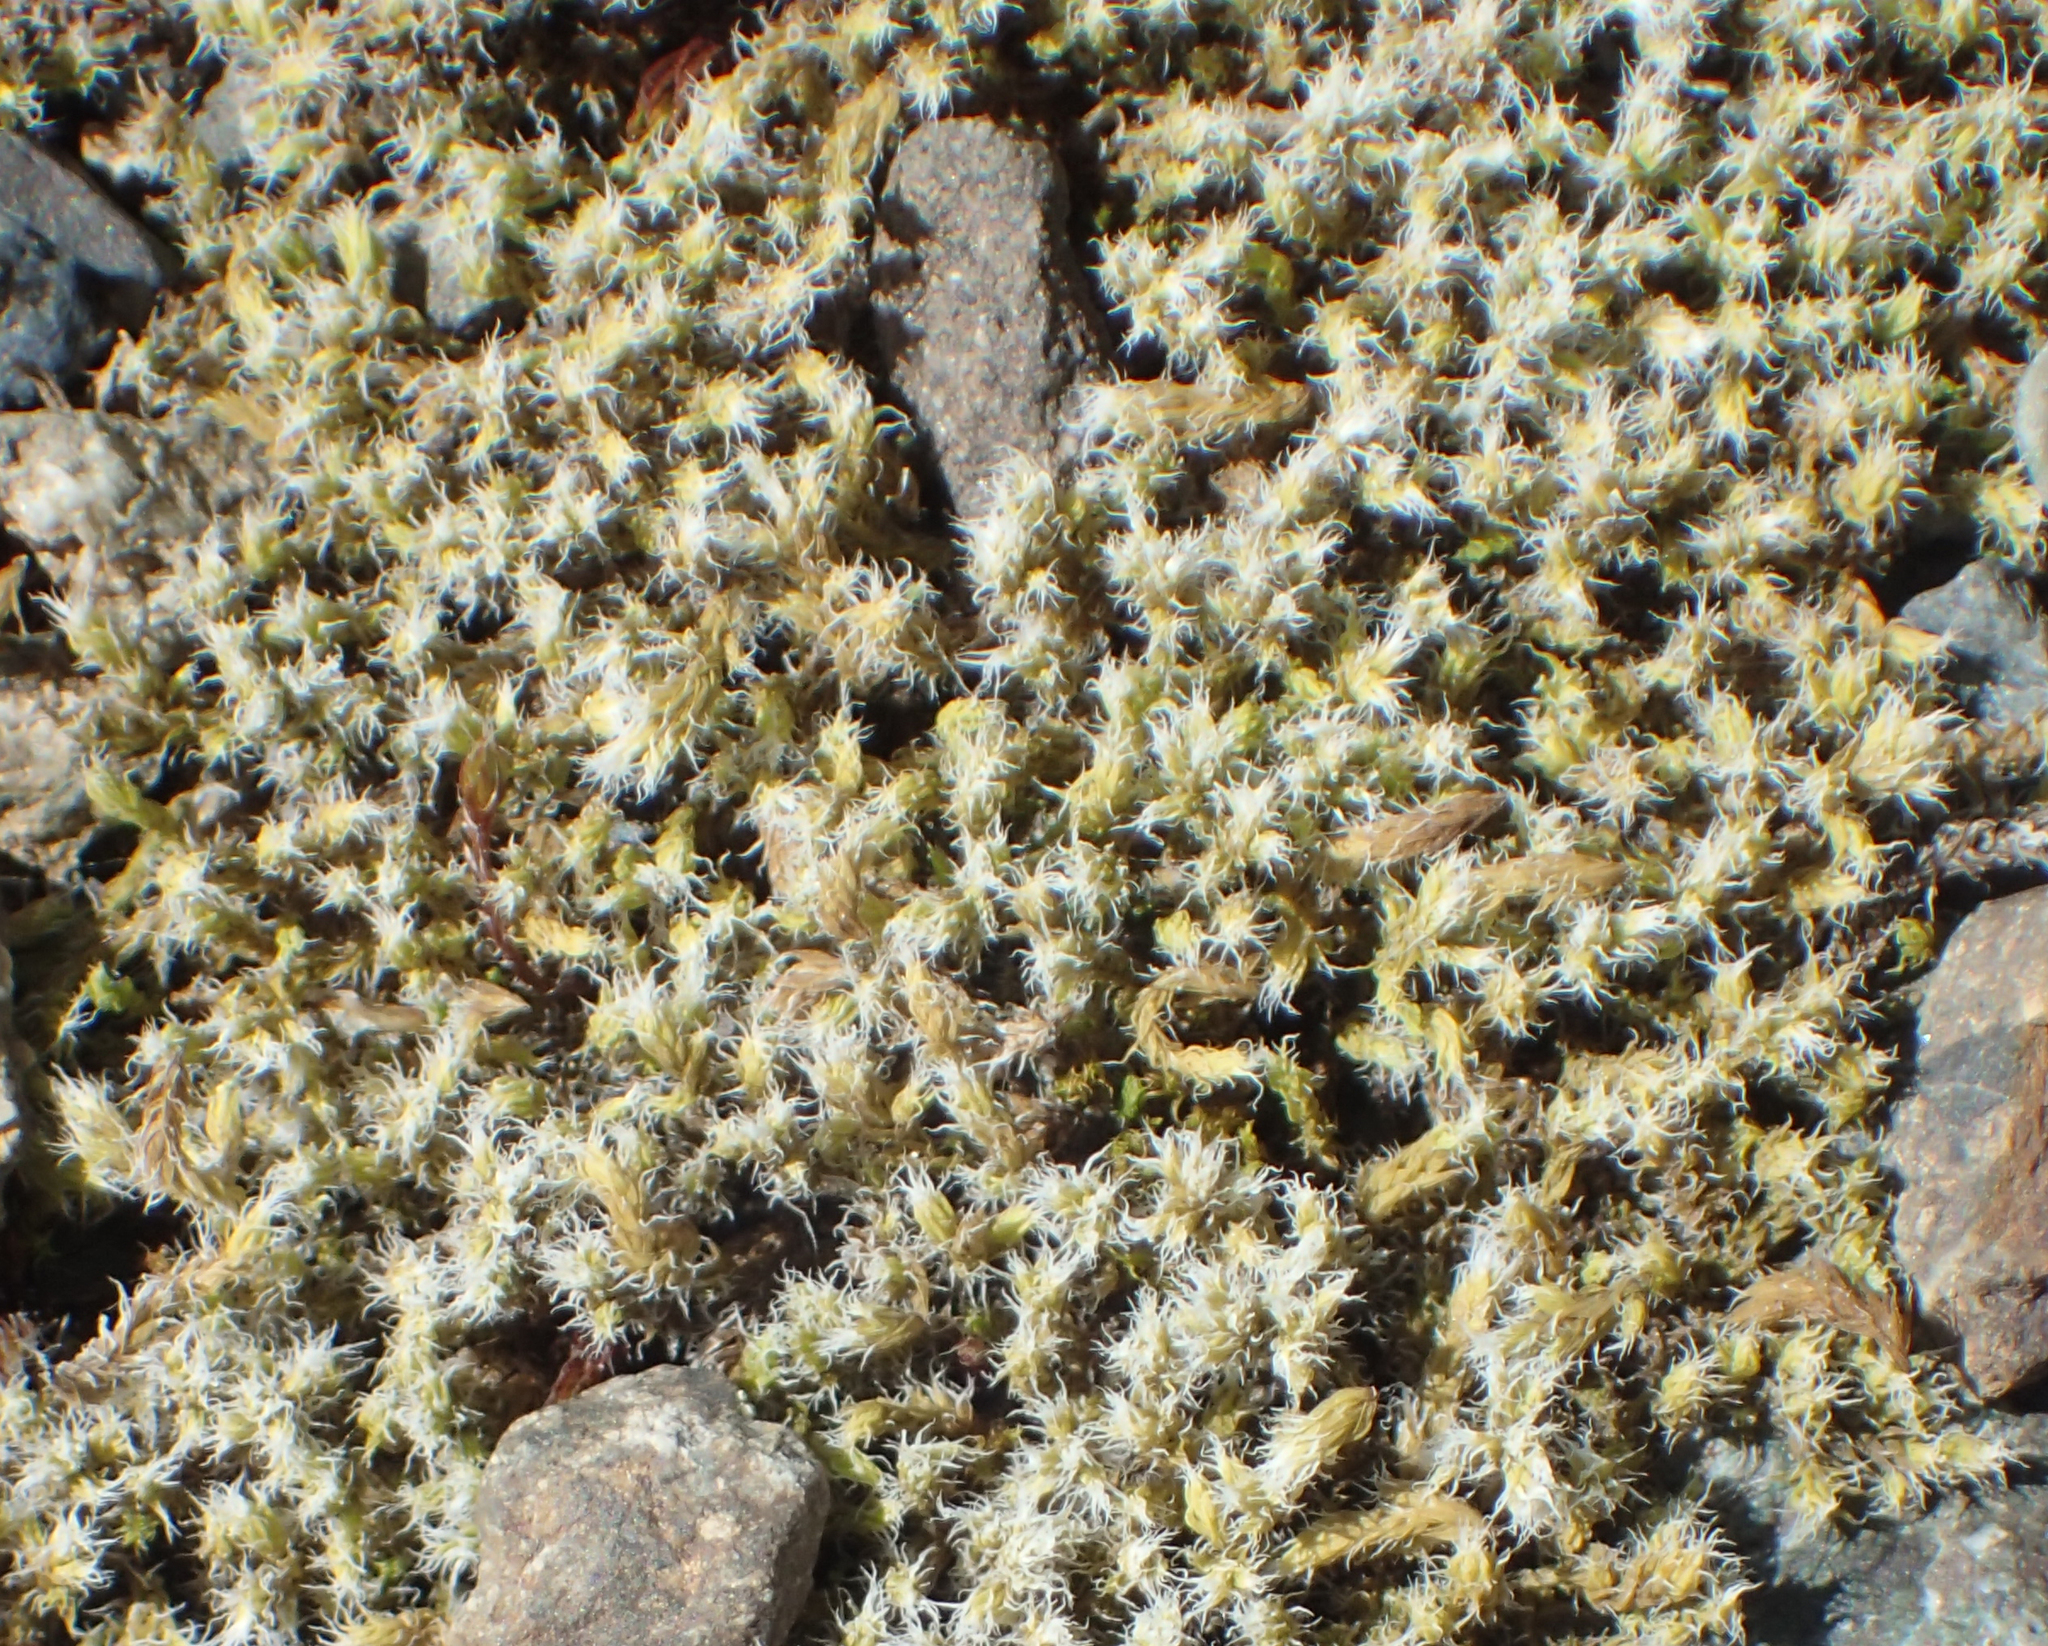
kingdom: Plantae
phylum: Bryophyta
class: Bryopsida
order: Grimmiales
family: Grimmiaceae
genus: Racomitrium
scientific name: Racomitrium lanuginosum
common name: Hoary rock moss
